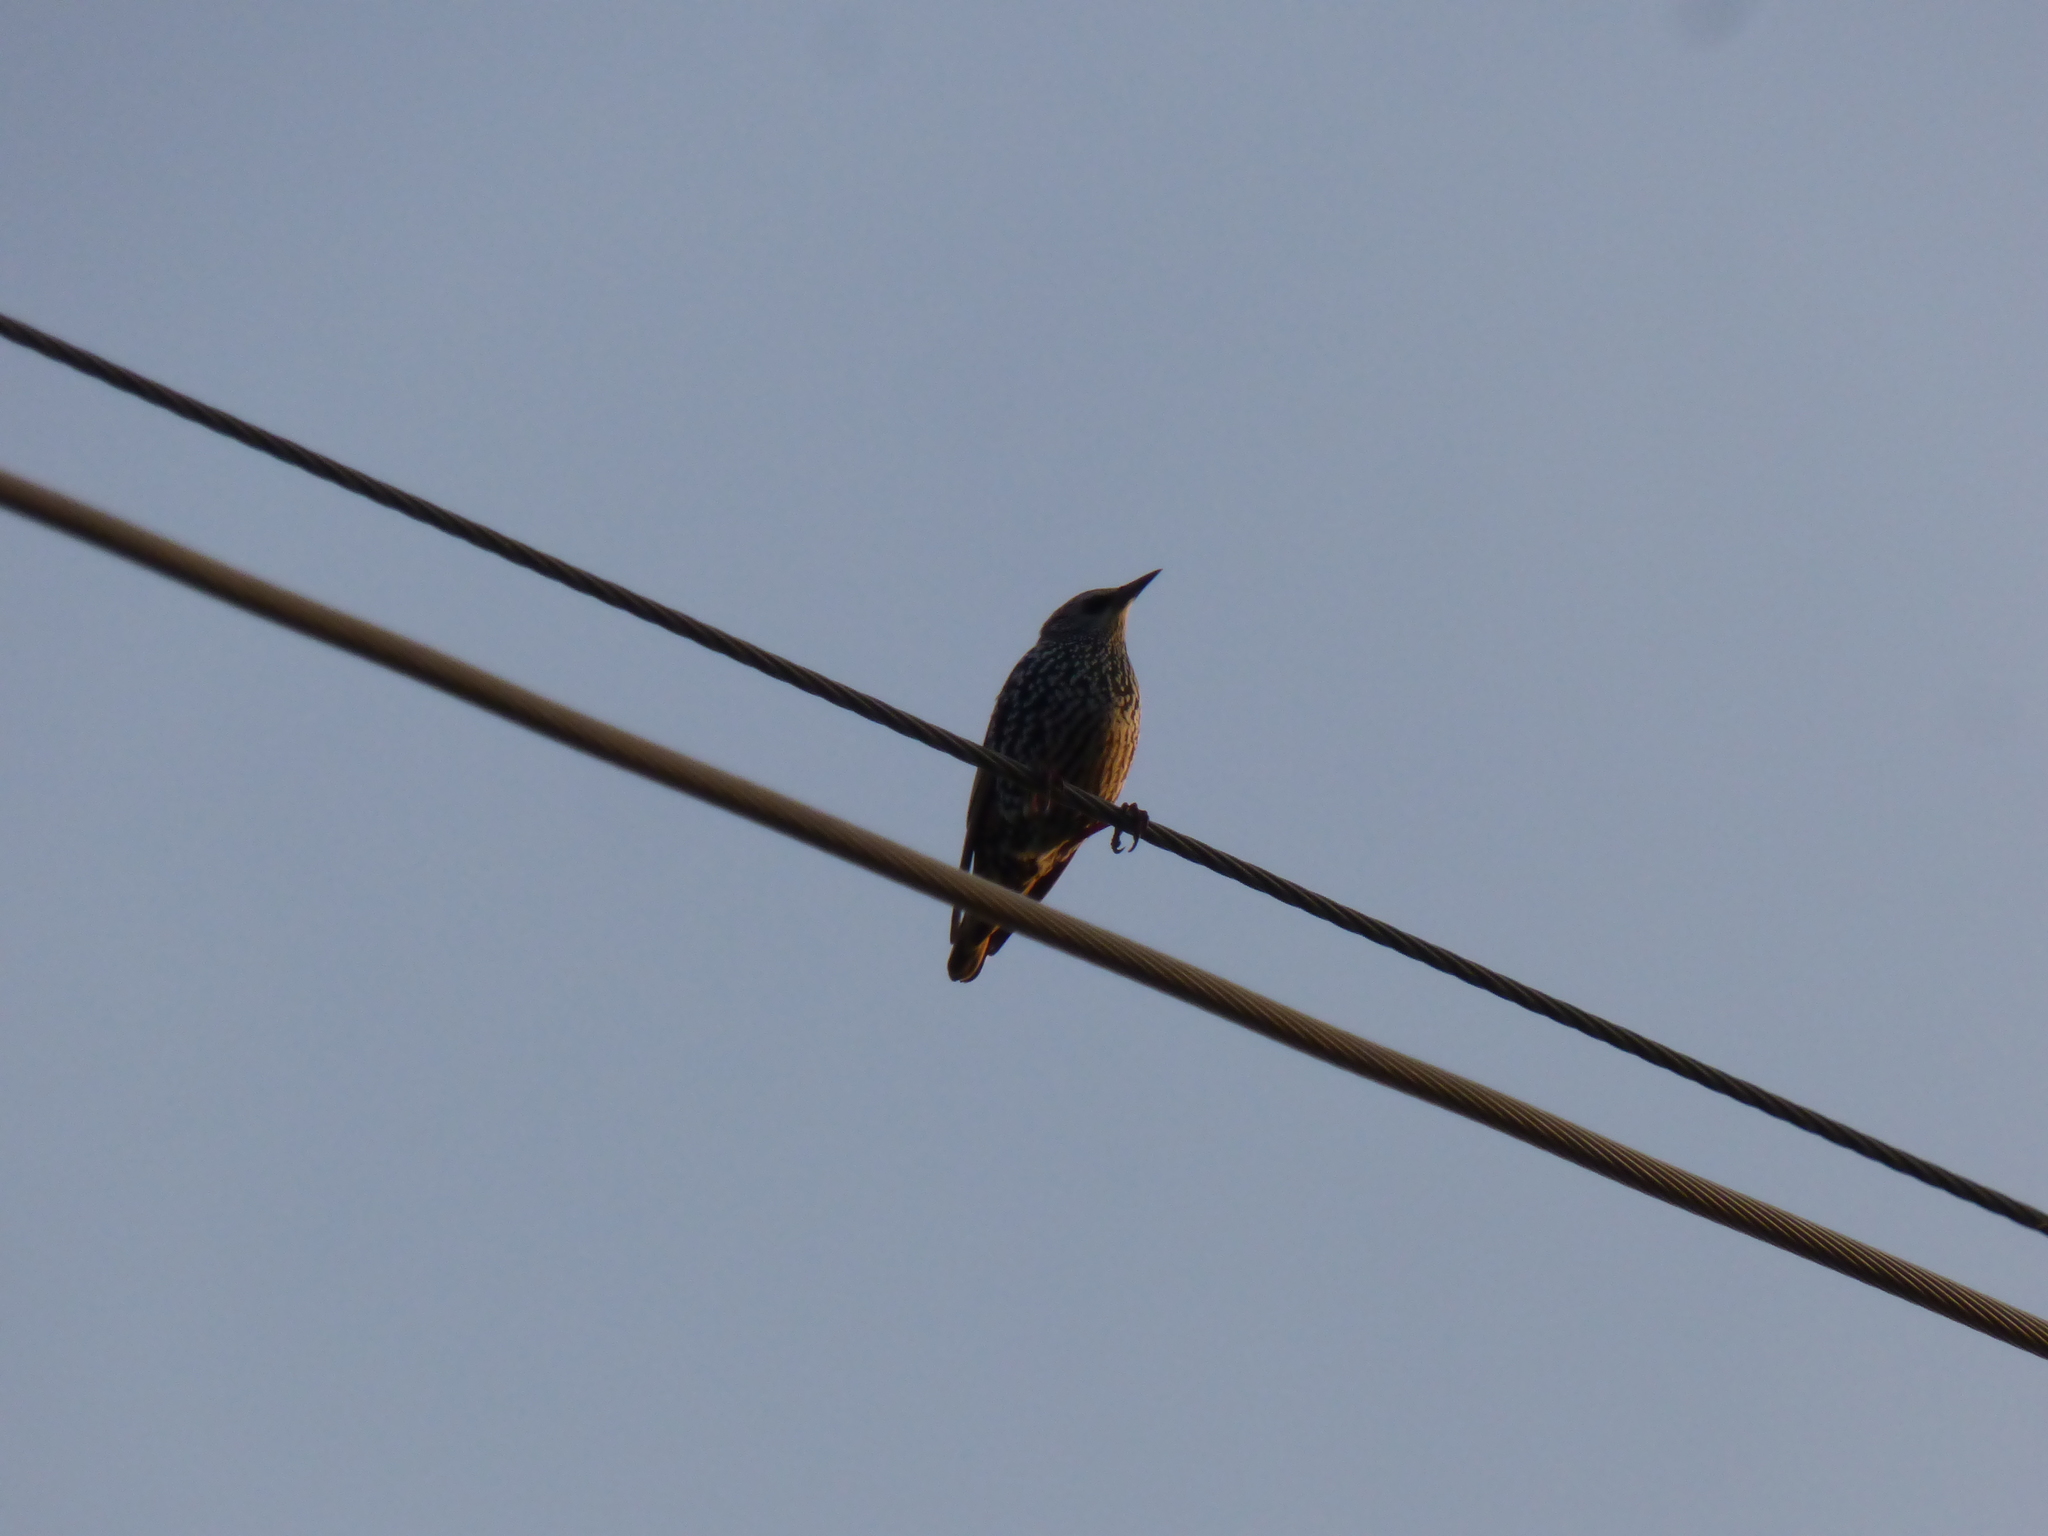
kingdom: Animalia
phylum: Chordata
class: Aves
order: Passeriformes
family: Sturnidae
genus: Sturnus
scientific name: Sturnus vulgaris
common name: Common starling
